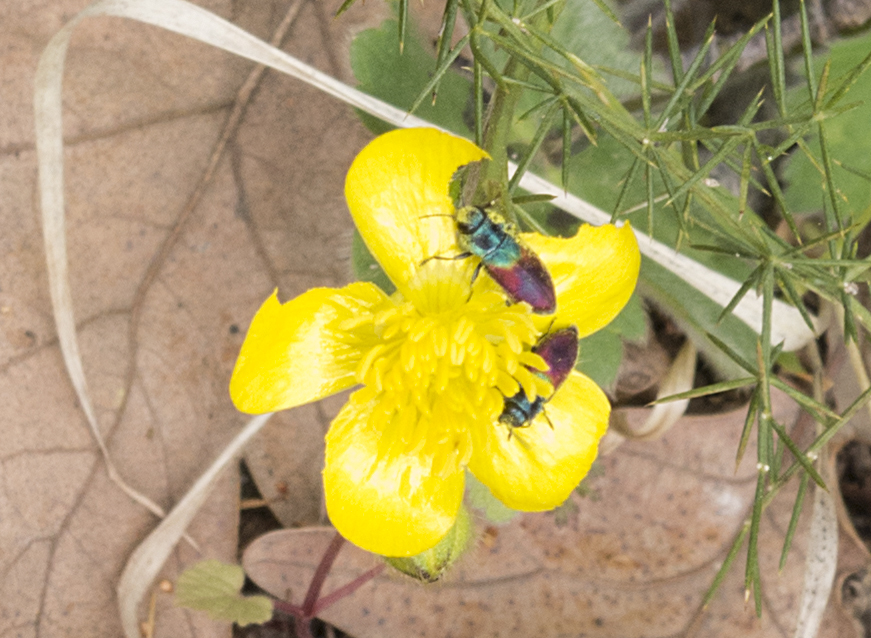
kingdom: Animalia
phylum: Arthropoda
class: Insecta
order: Coleoptera
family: Buprestidae
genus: Anthaxia
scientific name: Anthaxia salicis
